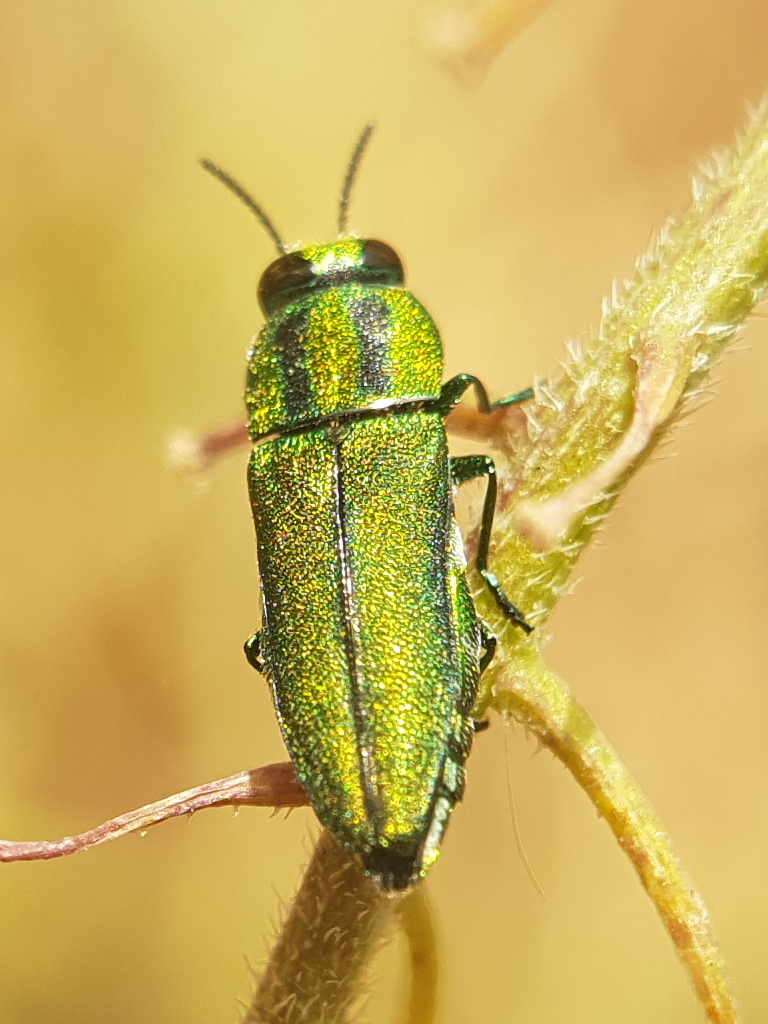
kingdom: Animalia
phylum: Arthropoda
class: Insecta
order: Coleoptera
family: Buprestidae
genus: Anthaxia
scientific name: Anthaxia sponsa
